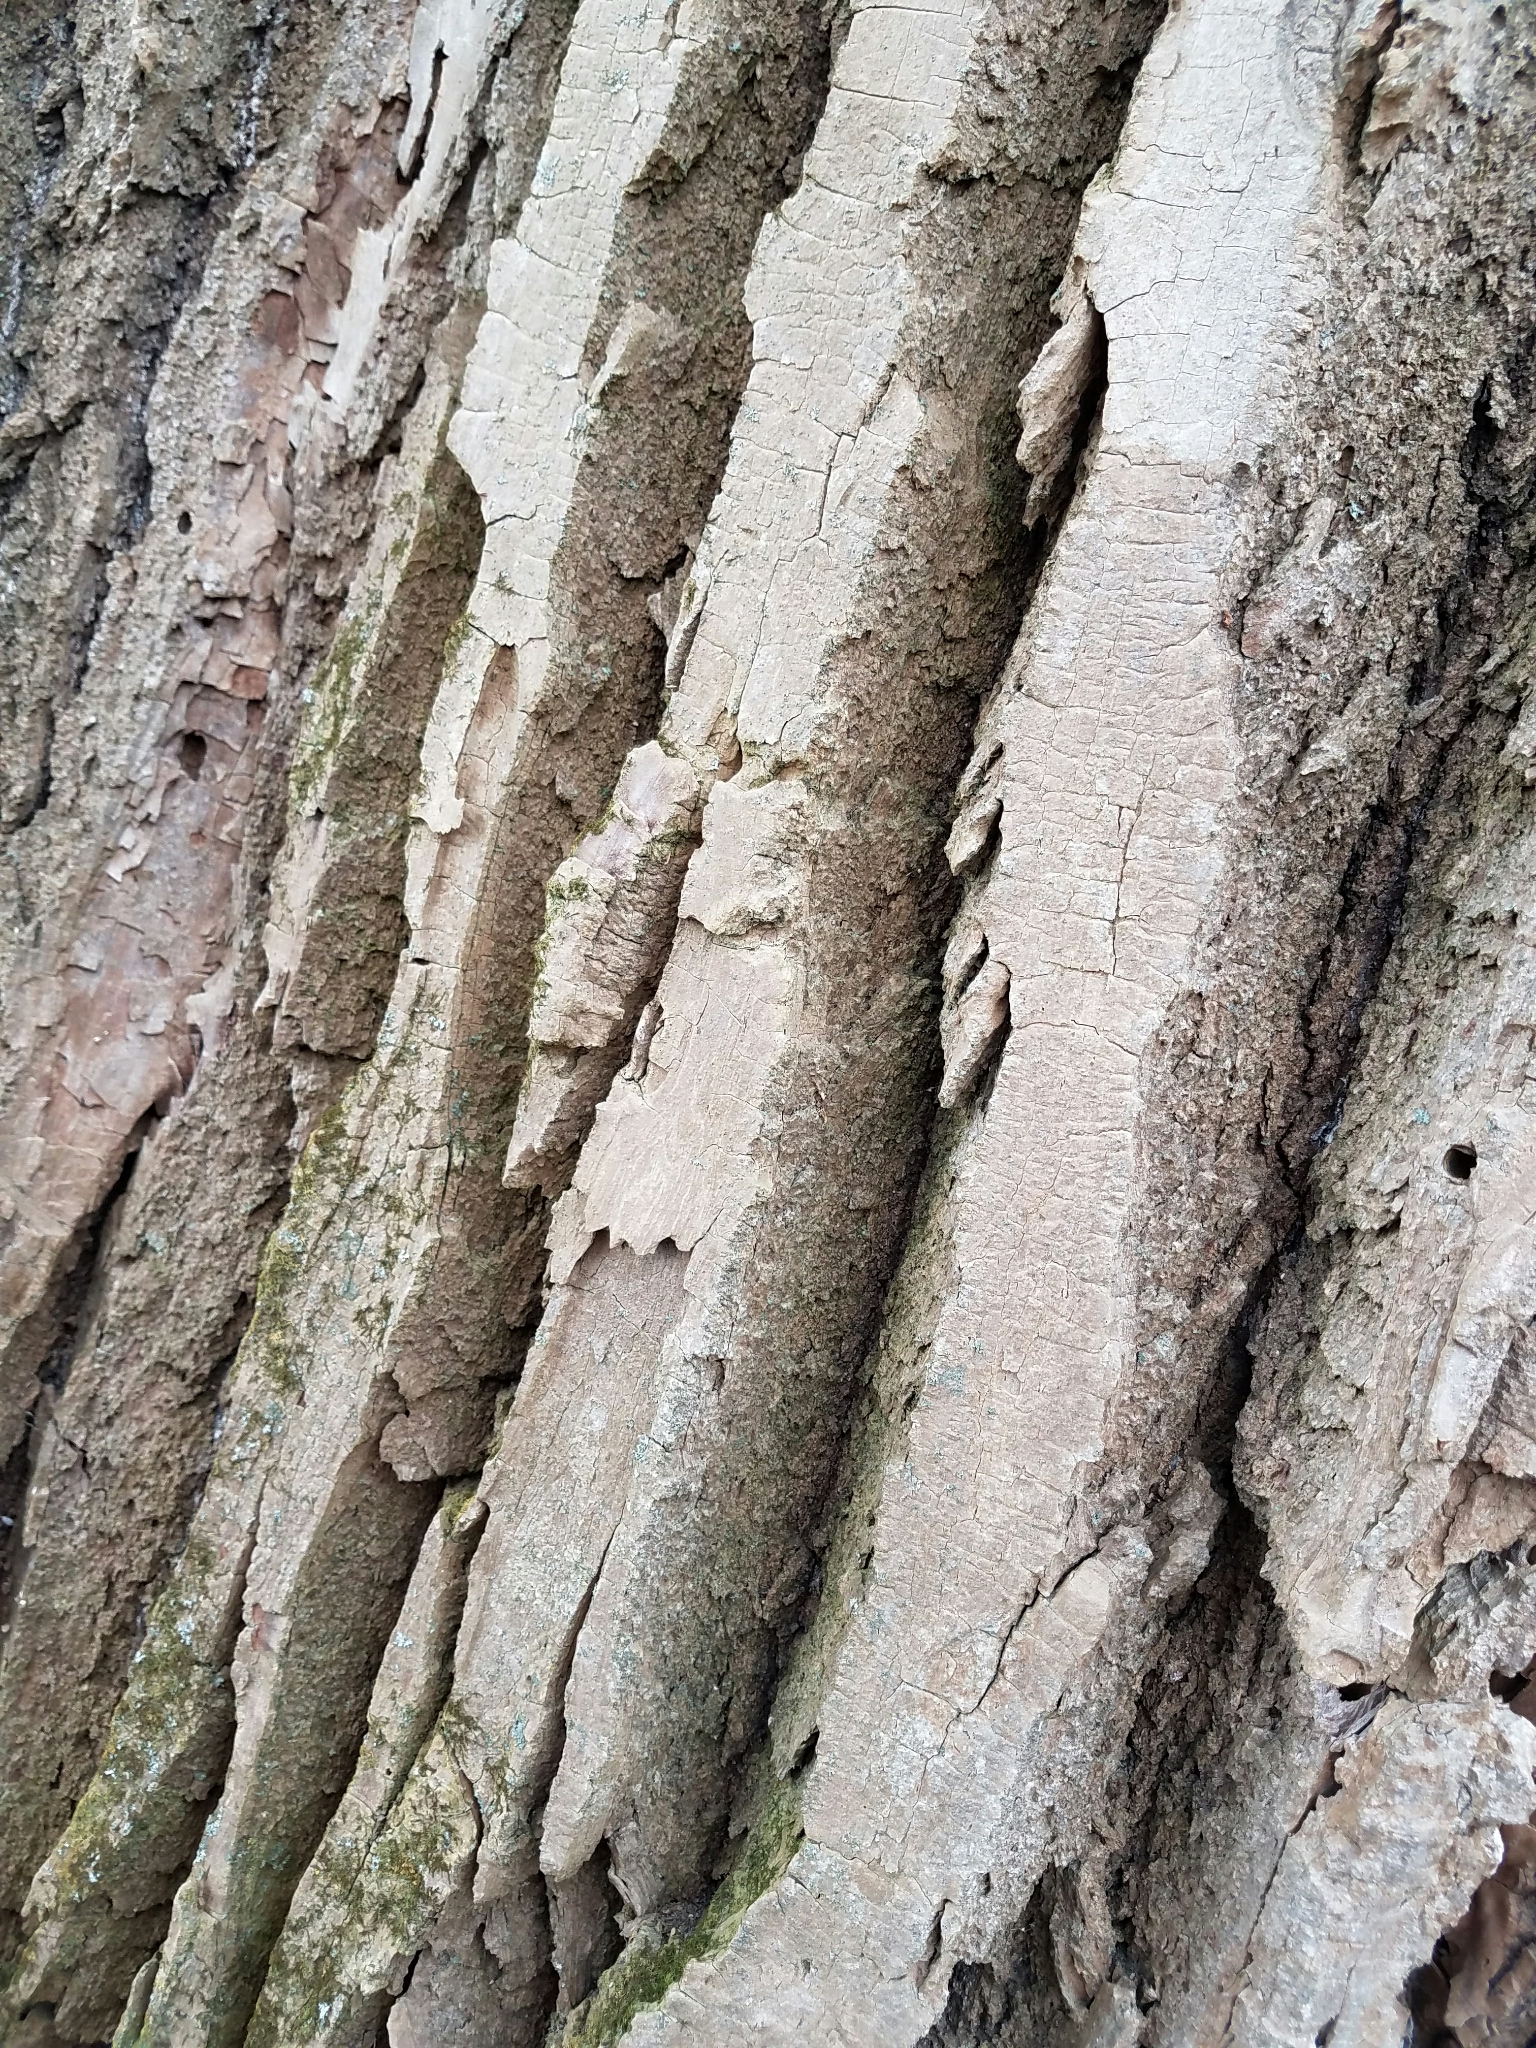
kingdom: Plantae
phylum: Tracheophyta
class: Magnoliopsida
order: Malpighiales
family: Salicaceae
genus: Populus
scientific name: Populus deltoides
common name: Eastern cottonwood
